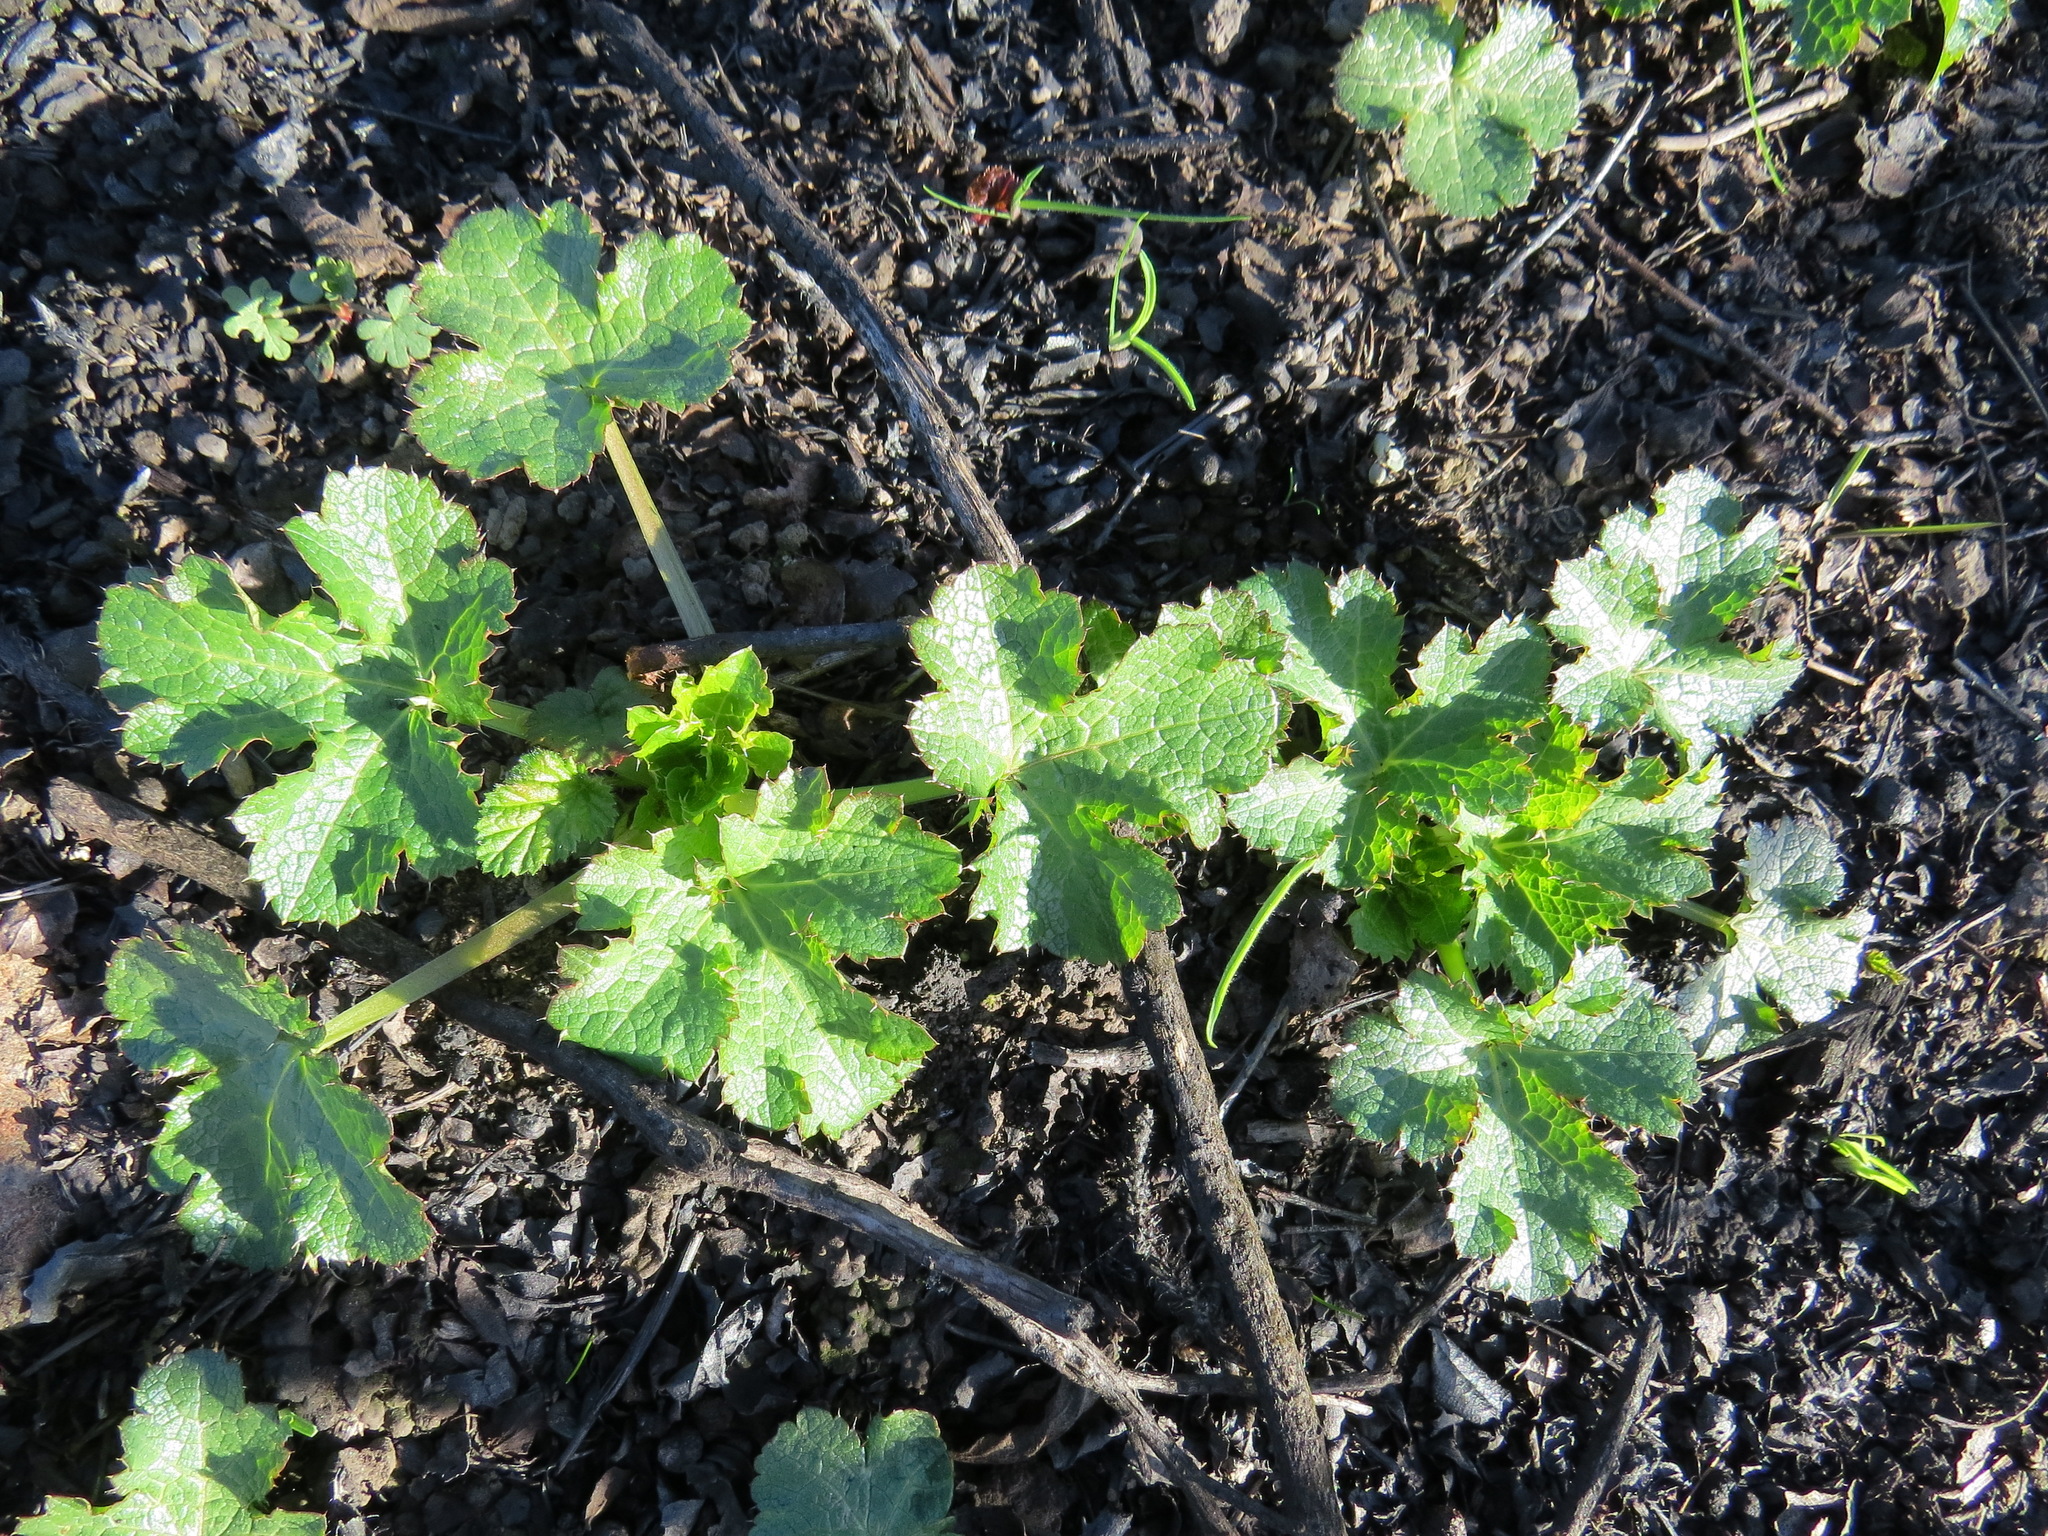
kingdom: Plantae
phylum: Tracheophyta
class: Magnoliopsida
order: Apiales
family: Apiaceae
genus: Sanicula
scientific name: Sanicula crassicaulis
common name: Western snakeroot
